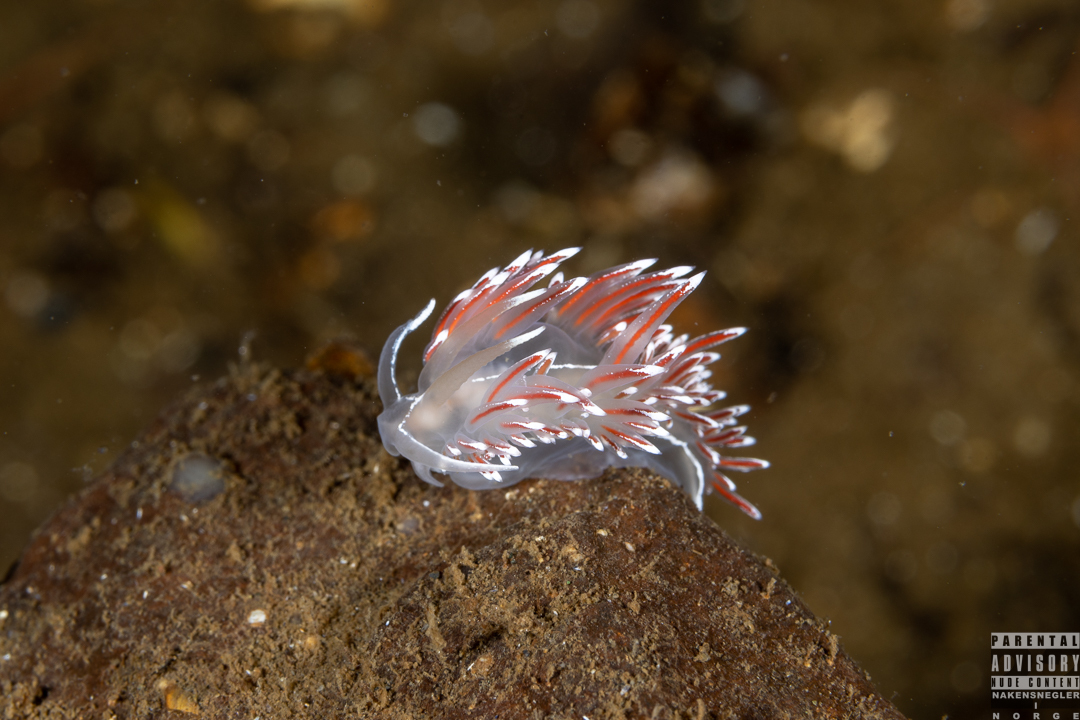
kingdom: Animalia
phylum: Mollusca
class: Gastropoda
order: Nudibranchia
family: Coryphellidae
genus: Coryphella
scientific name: Coryphella lineata
